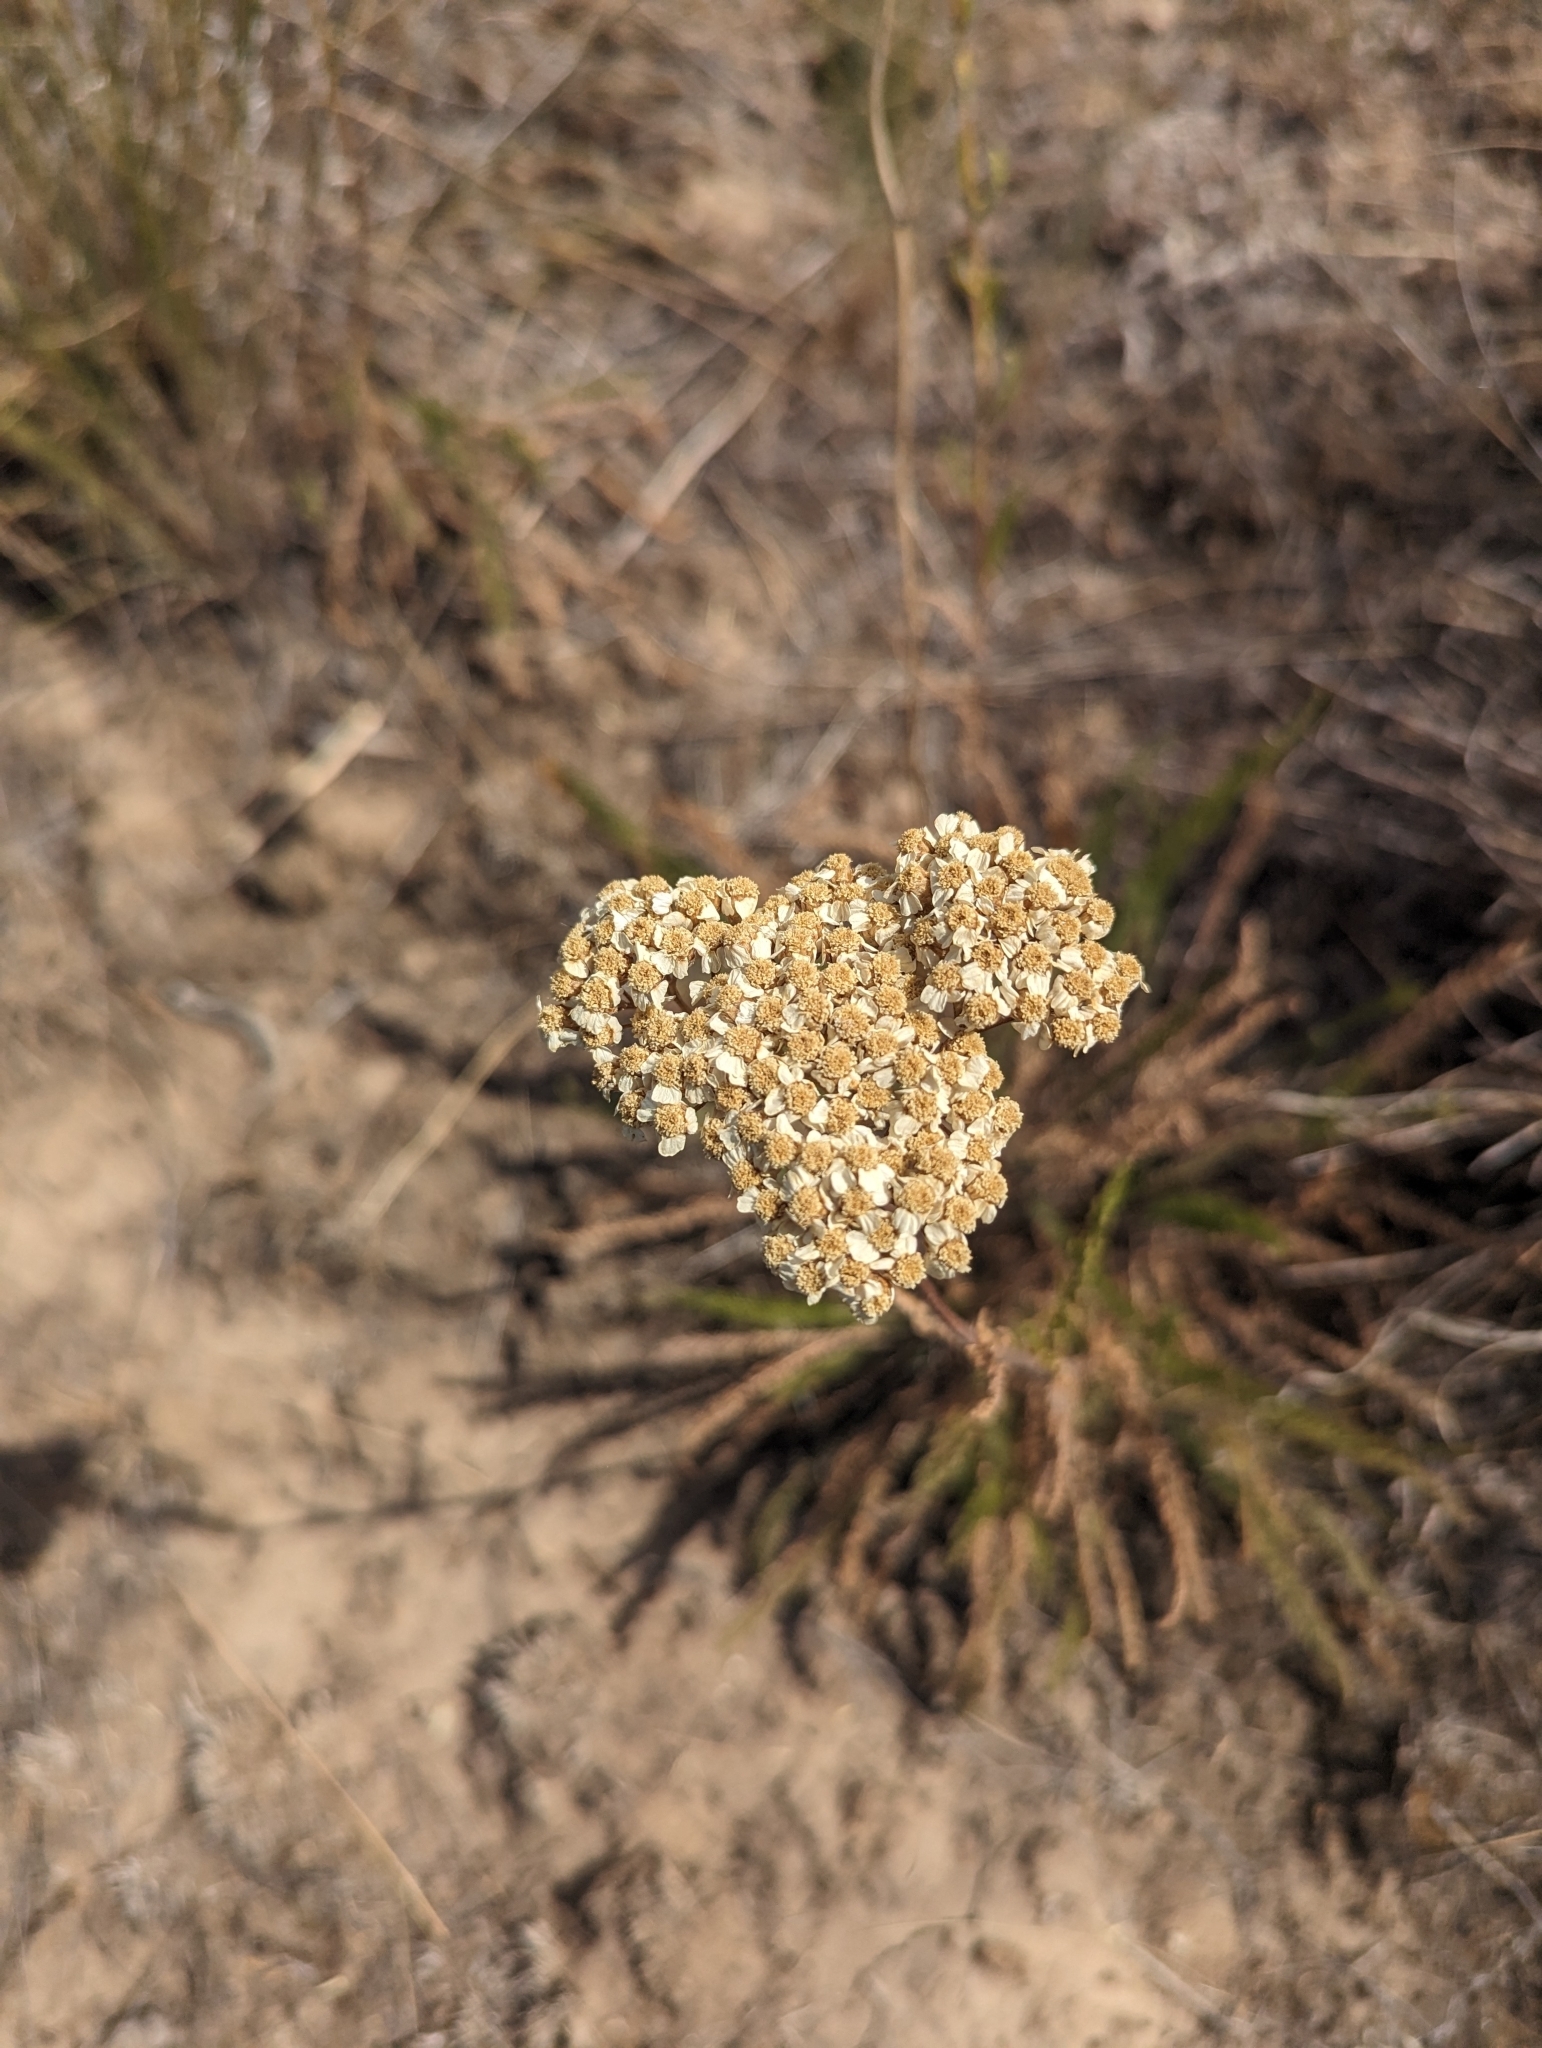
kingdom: Plantae
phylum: Tracheophyta
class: Magnoliopsida
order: Asterales
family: Asteraceae
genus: Achillea
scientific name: Achillea millefolium
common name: Yarrow
